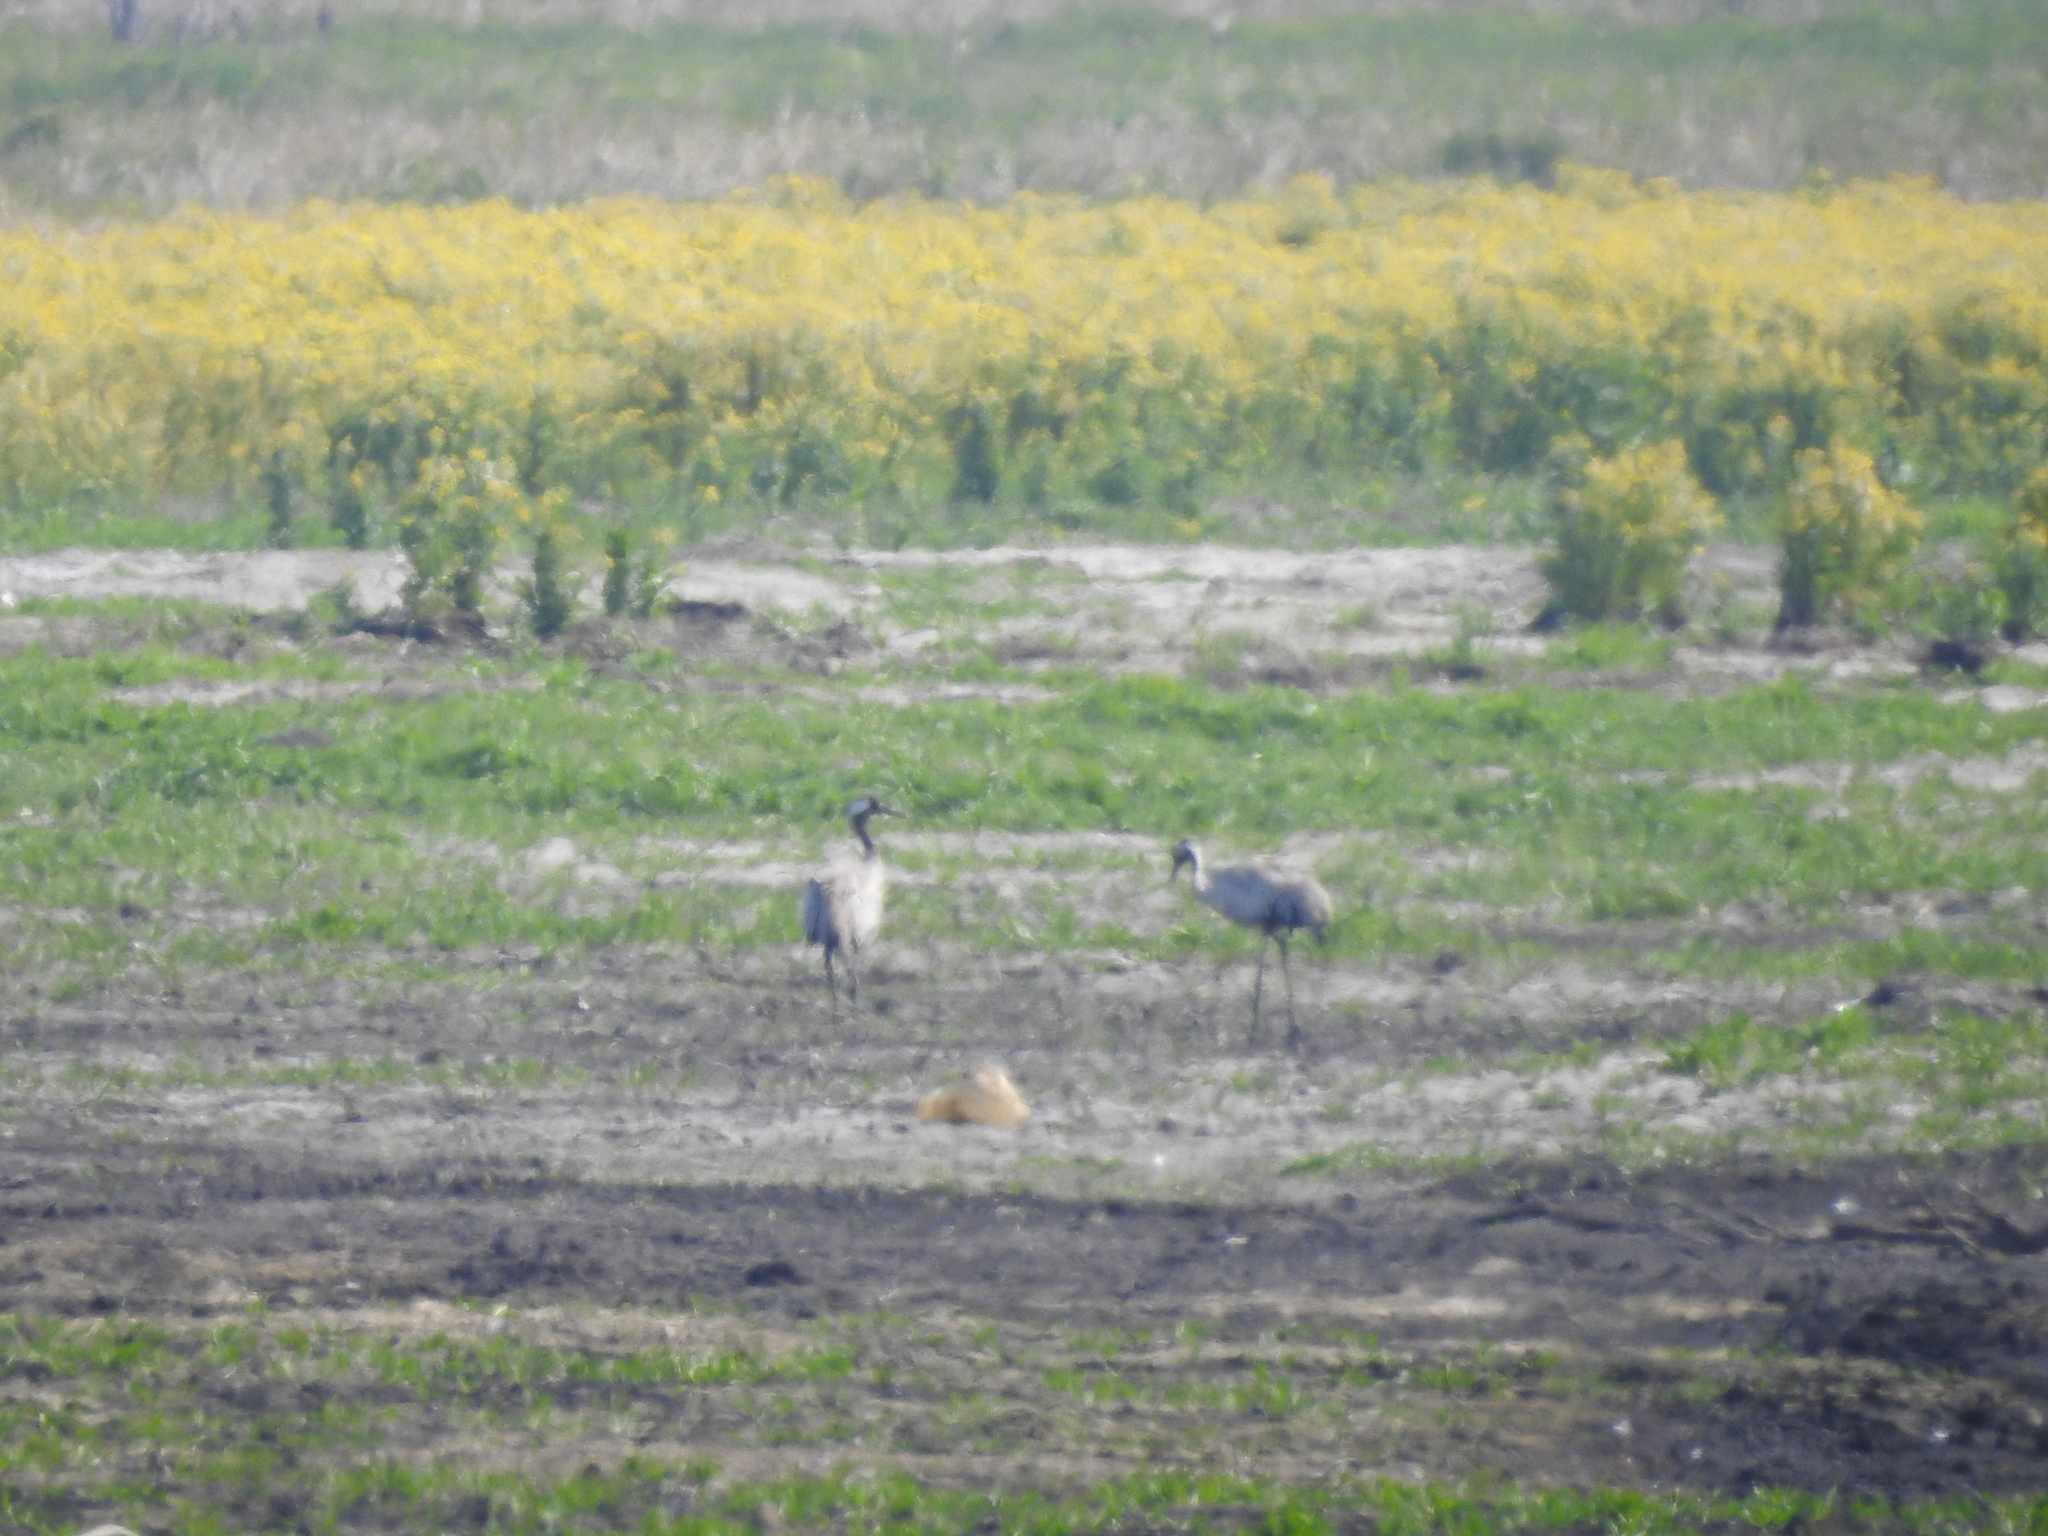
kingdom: Animalia
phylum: Chordata
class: Aves
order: Gruiformes
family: Gruidae
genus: Grus
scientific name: Grus grus
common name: Common crane
